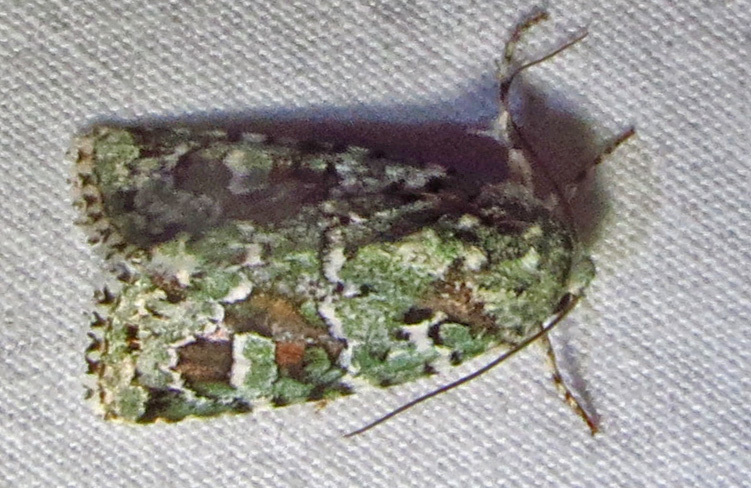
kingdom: Animalia
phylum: Arthropoda
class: Insecta
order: Lepidoptera
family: Noctuidae
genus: Lacinipolia
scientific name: Lacinipolia laudabilis
